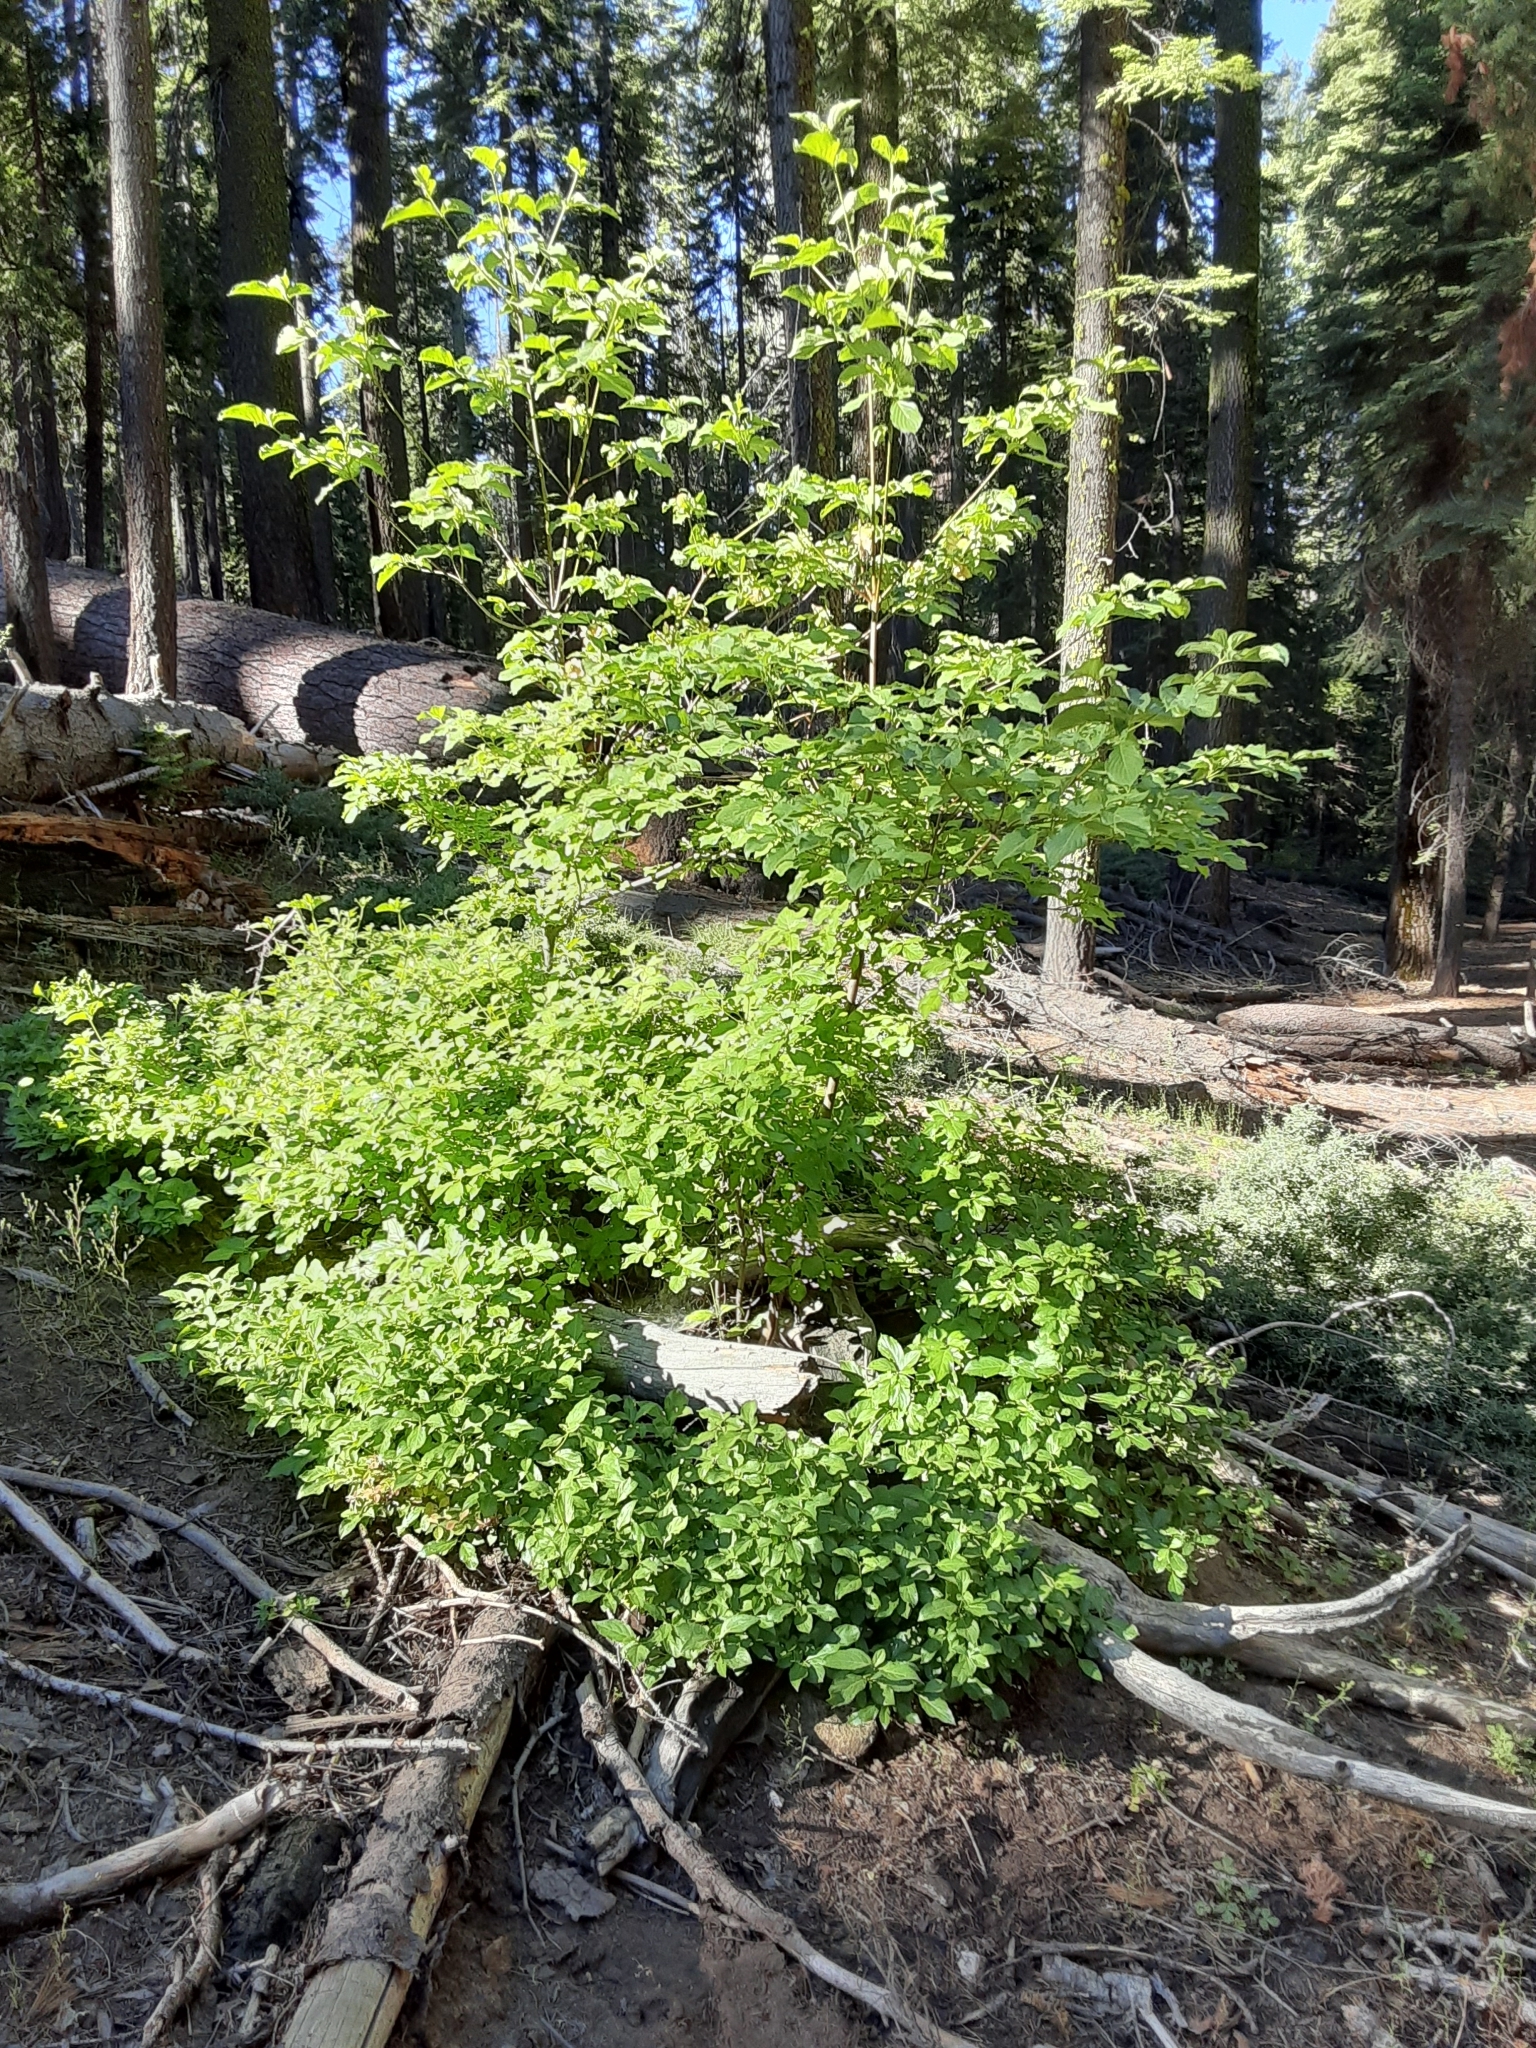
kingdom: Plantae
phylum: Tracheophyta
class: Magnoliopsida
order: Cornales
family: Cornaceae
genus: Cornus
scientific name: Cornus nuttallii
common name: Pacific dogwood
